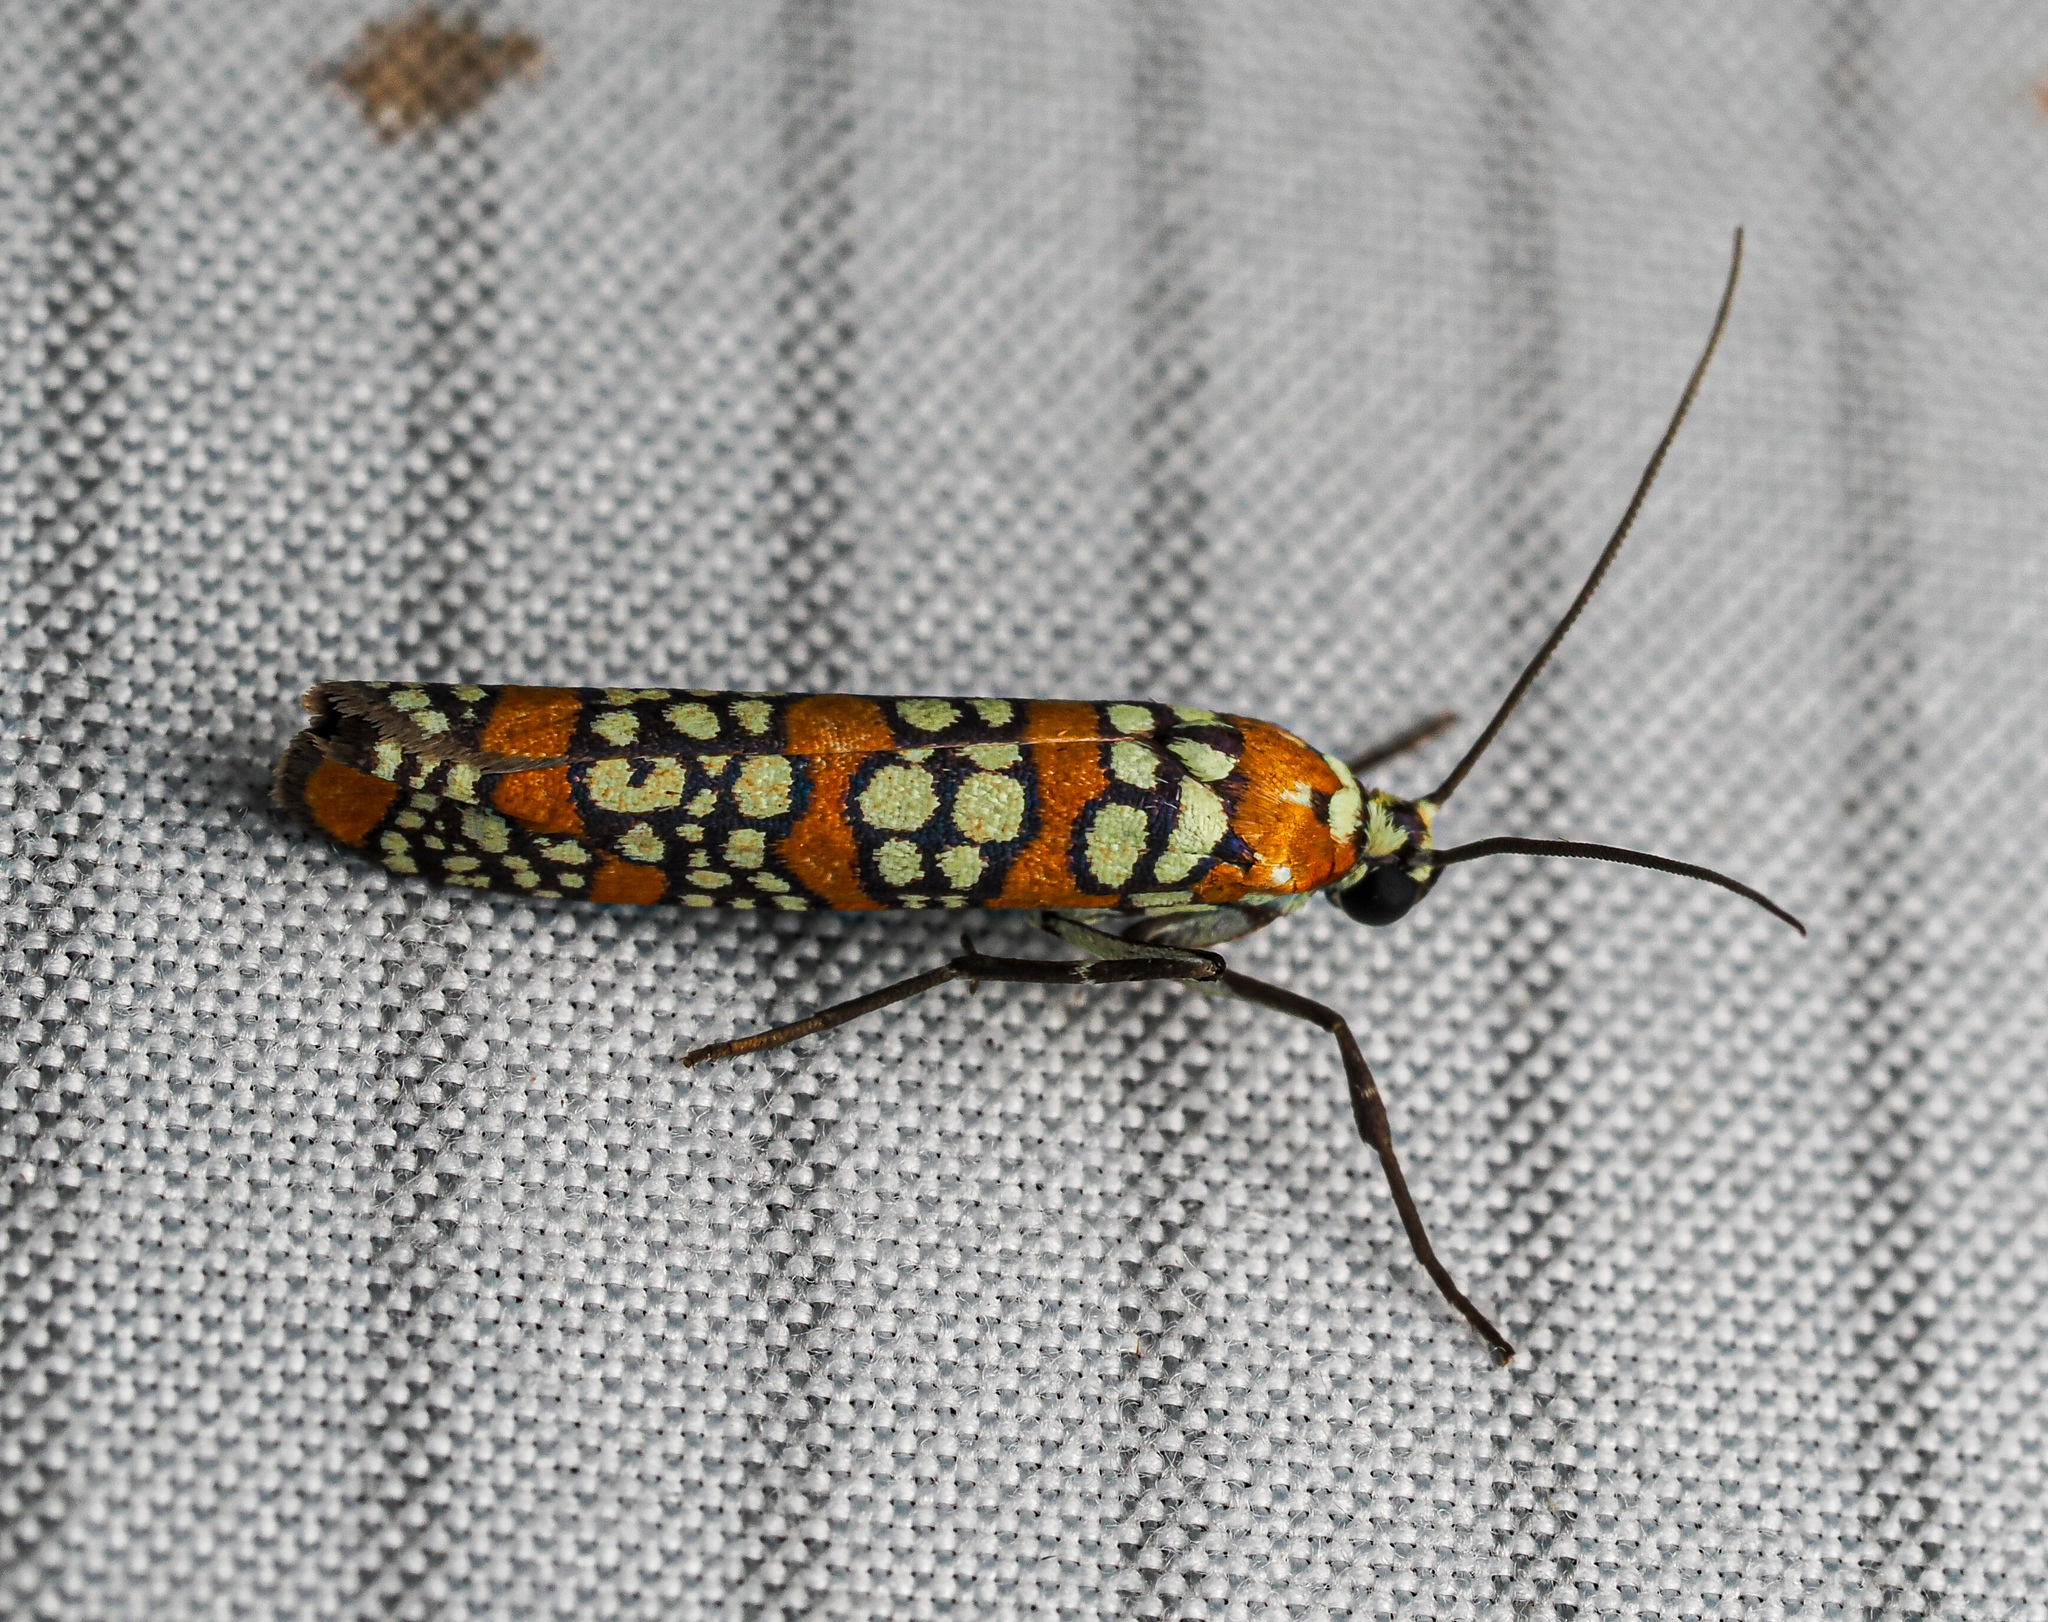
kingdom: Animalia
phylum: Arthropoda
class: Insecta
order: Lepidoptera
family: Attevidae
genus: Atteva
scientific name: Atteva punctella
